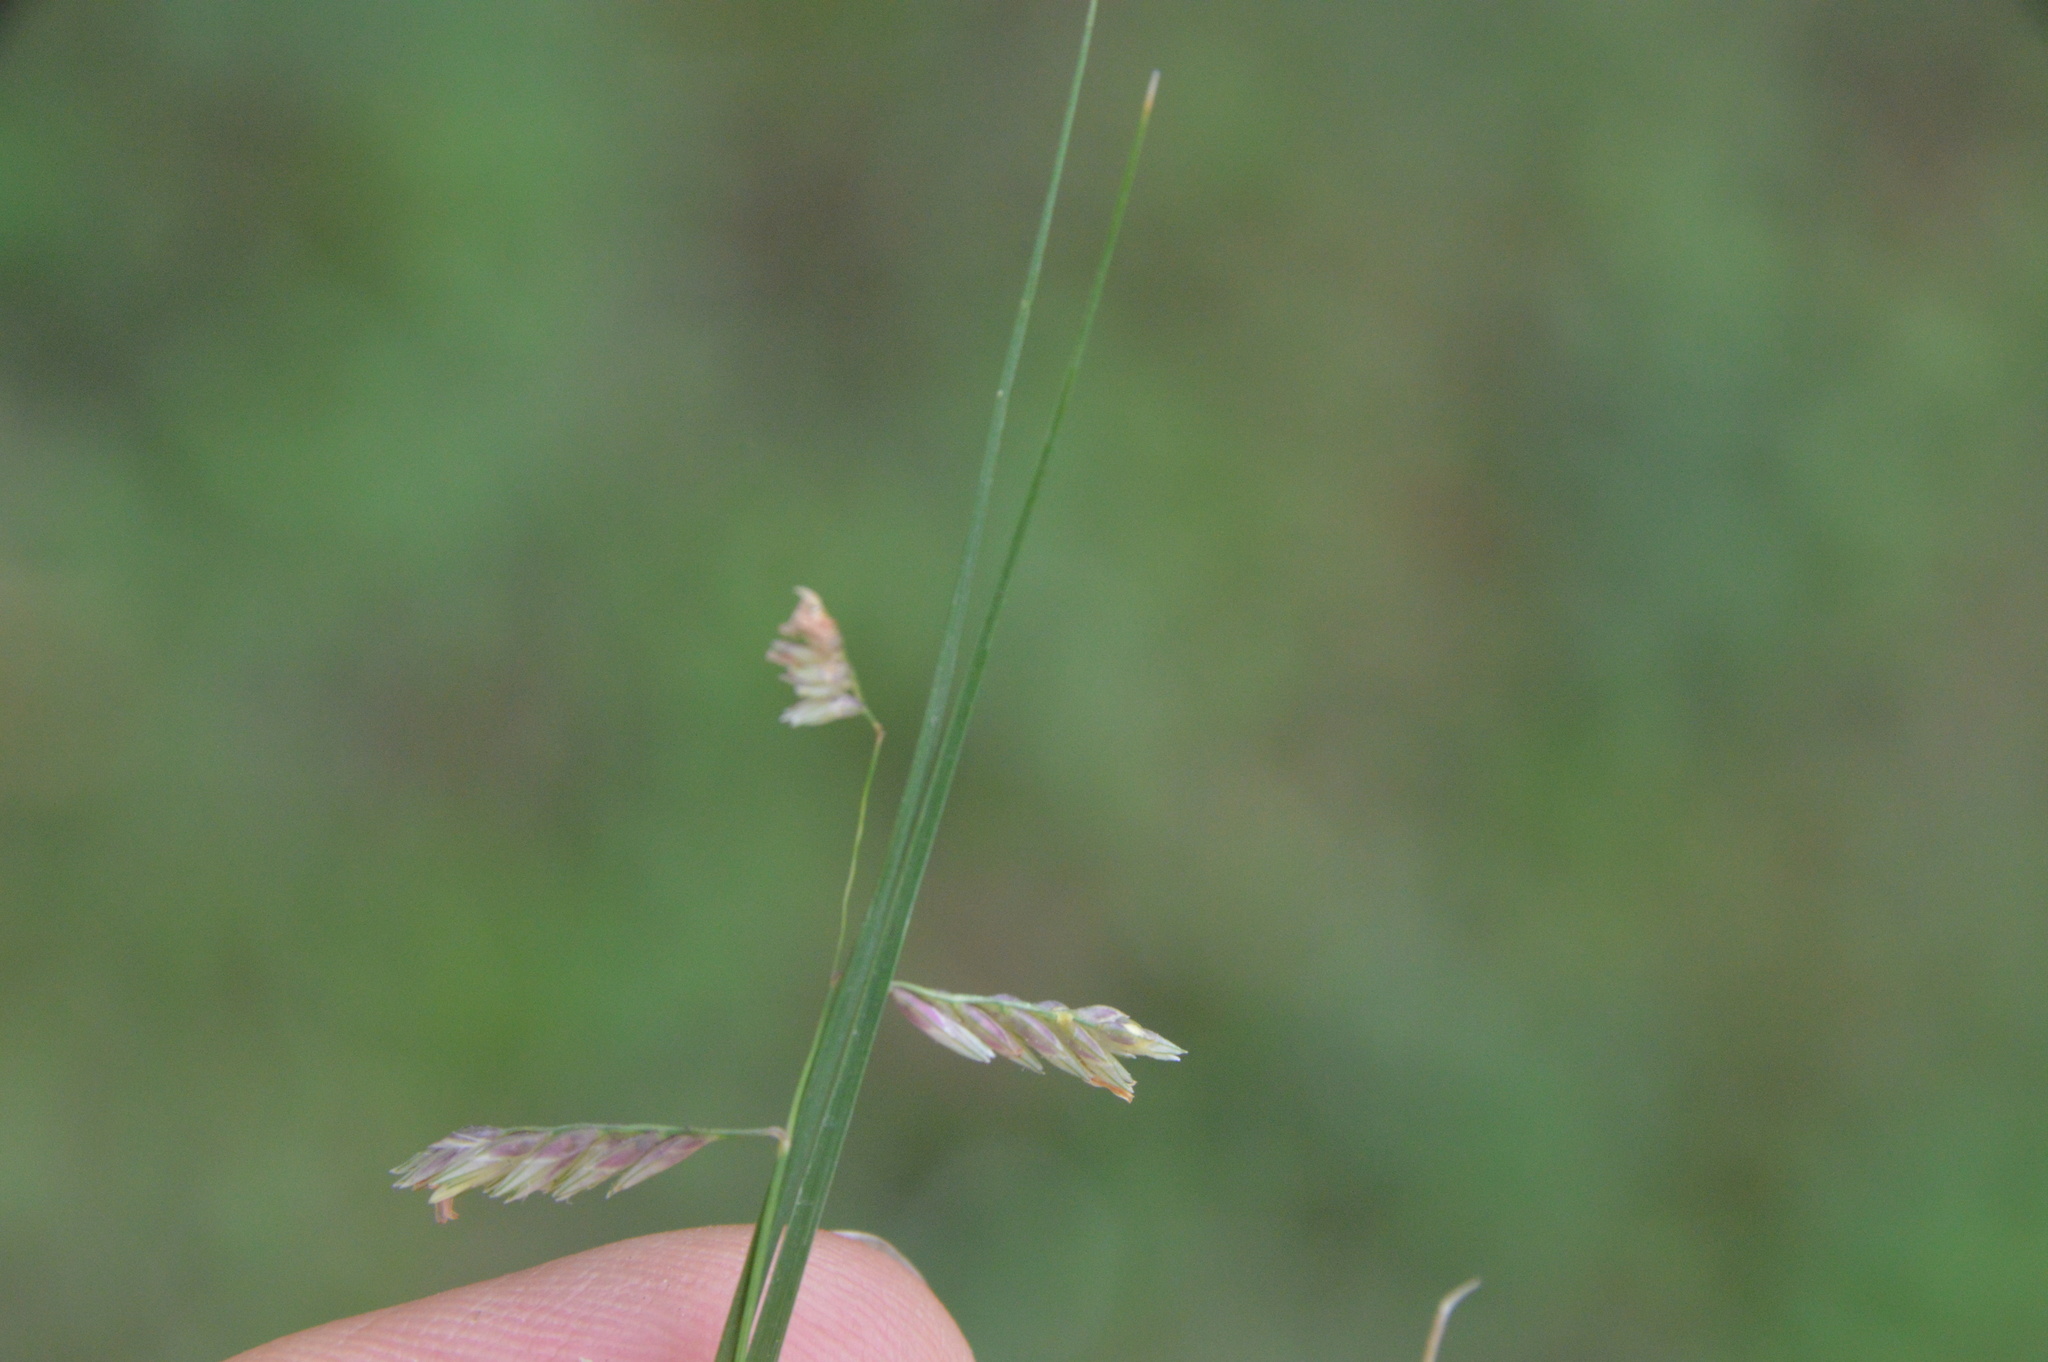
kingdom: Plantae
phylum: Tracheophyta
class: Liliopsida
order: Poales
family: Poaceae
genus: Bouteloua
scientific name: Bouteloua dactyloides
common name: Buffalo grass
